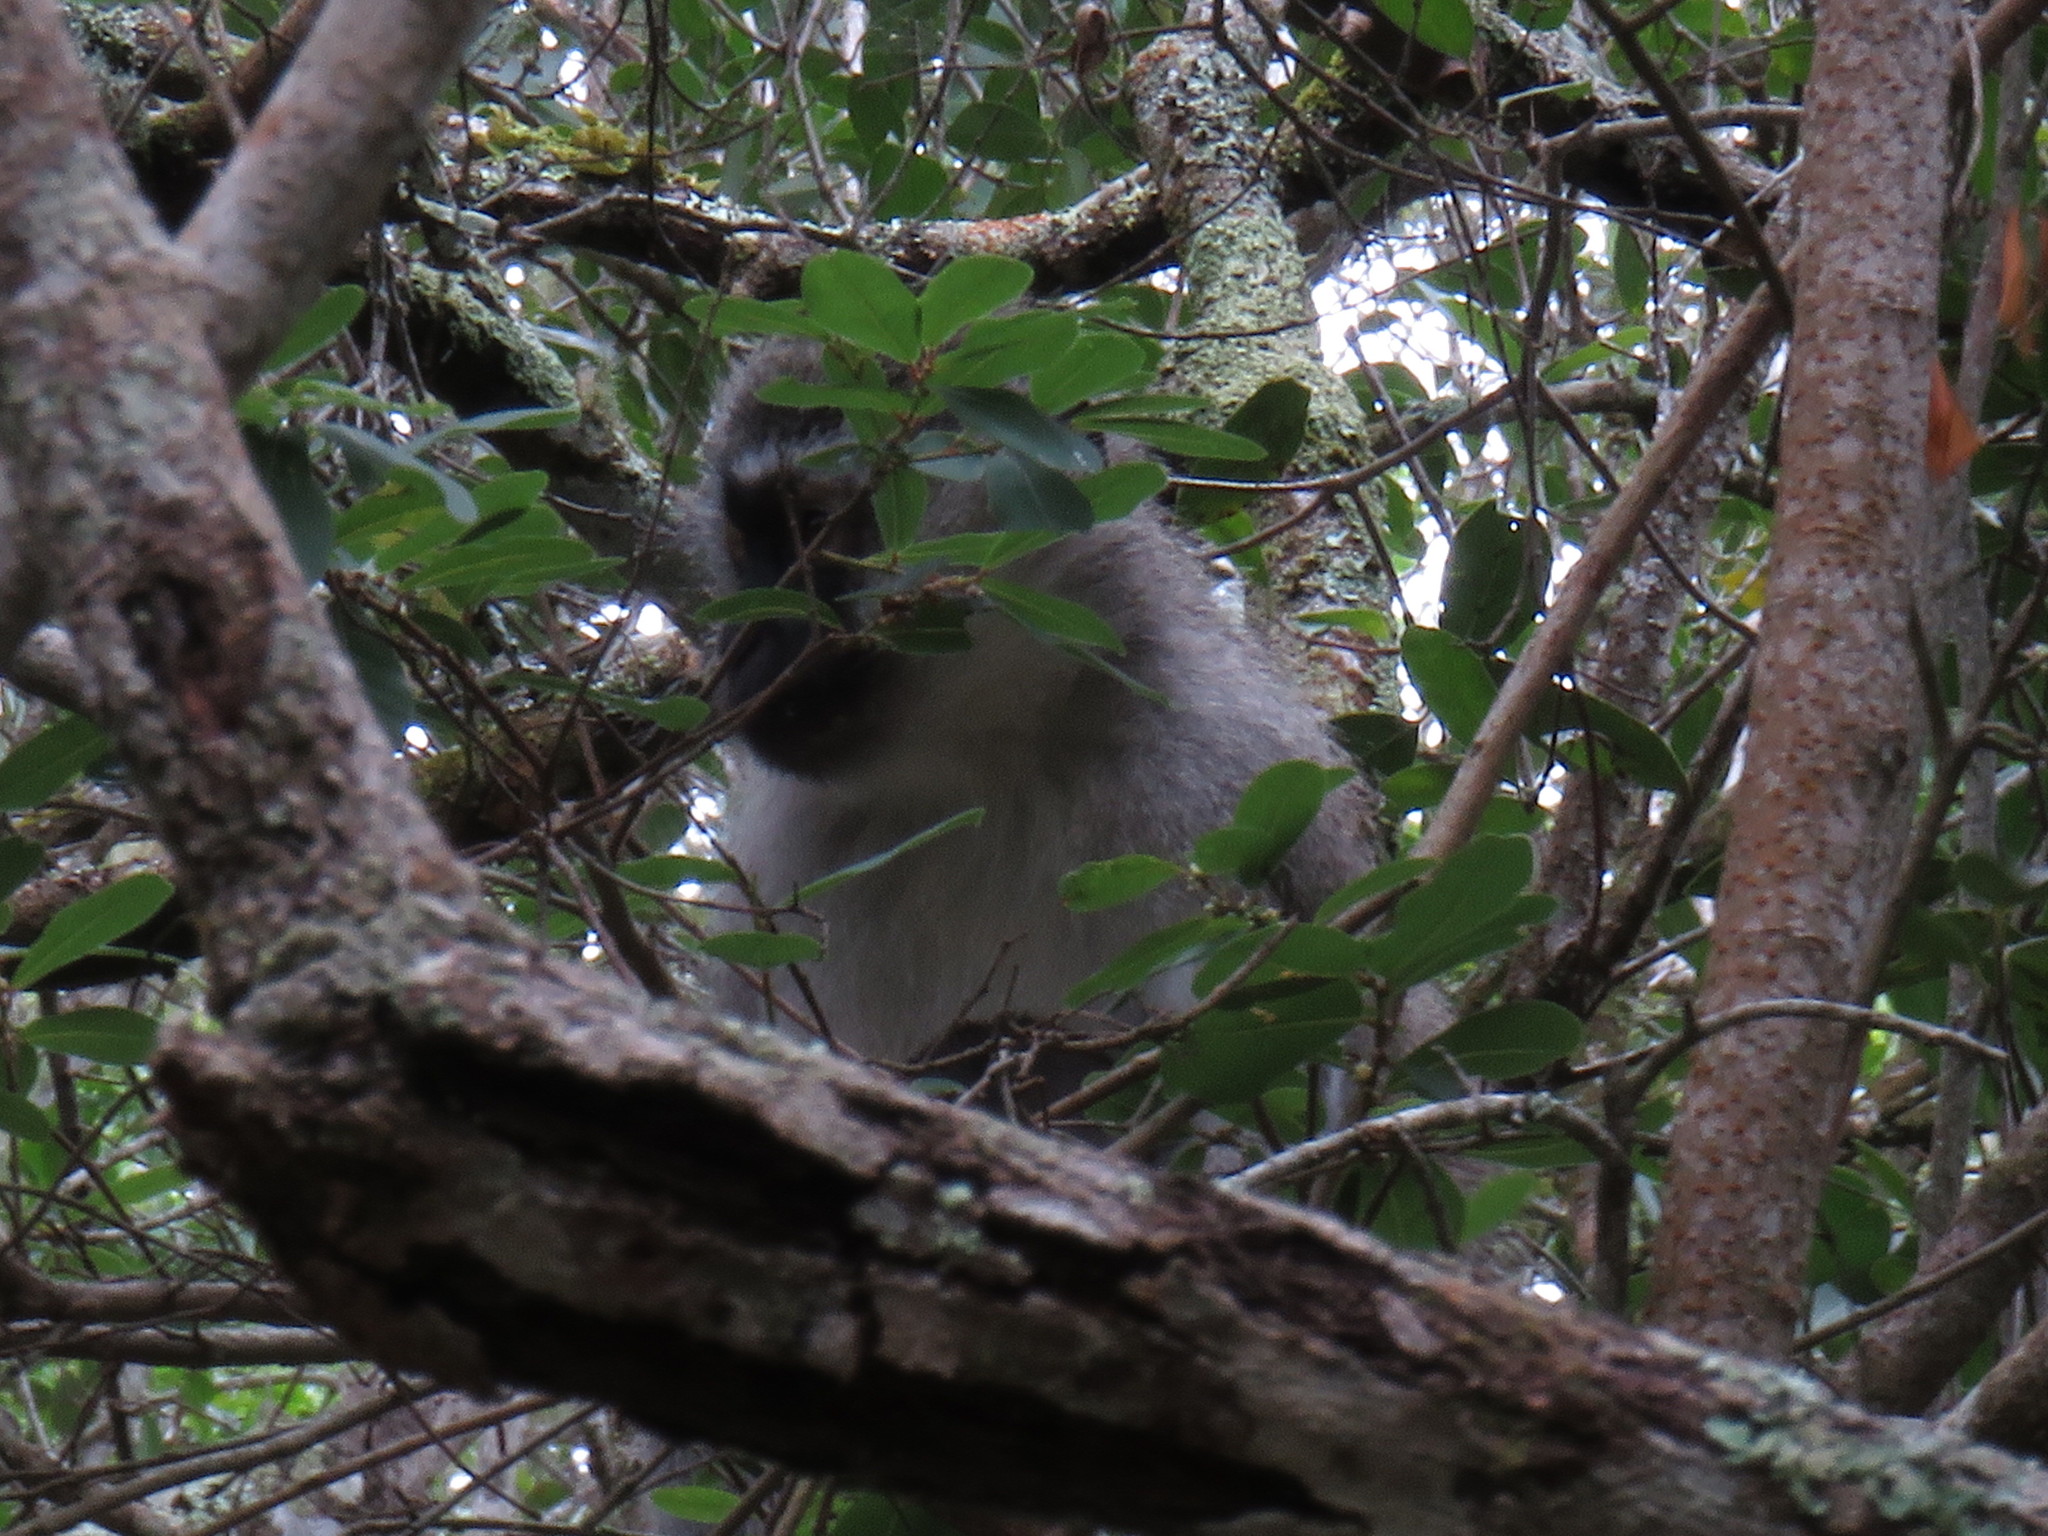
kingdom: Animalia
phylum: Chordata
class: Mammalia
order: Primates
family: Cercopithecidae
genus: Chlorocebus
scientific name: Chlorocebus pygerythrus
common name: Vervet monkey
